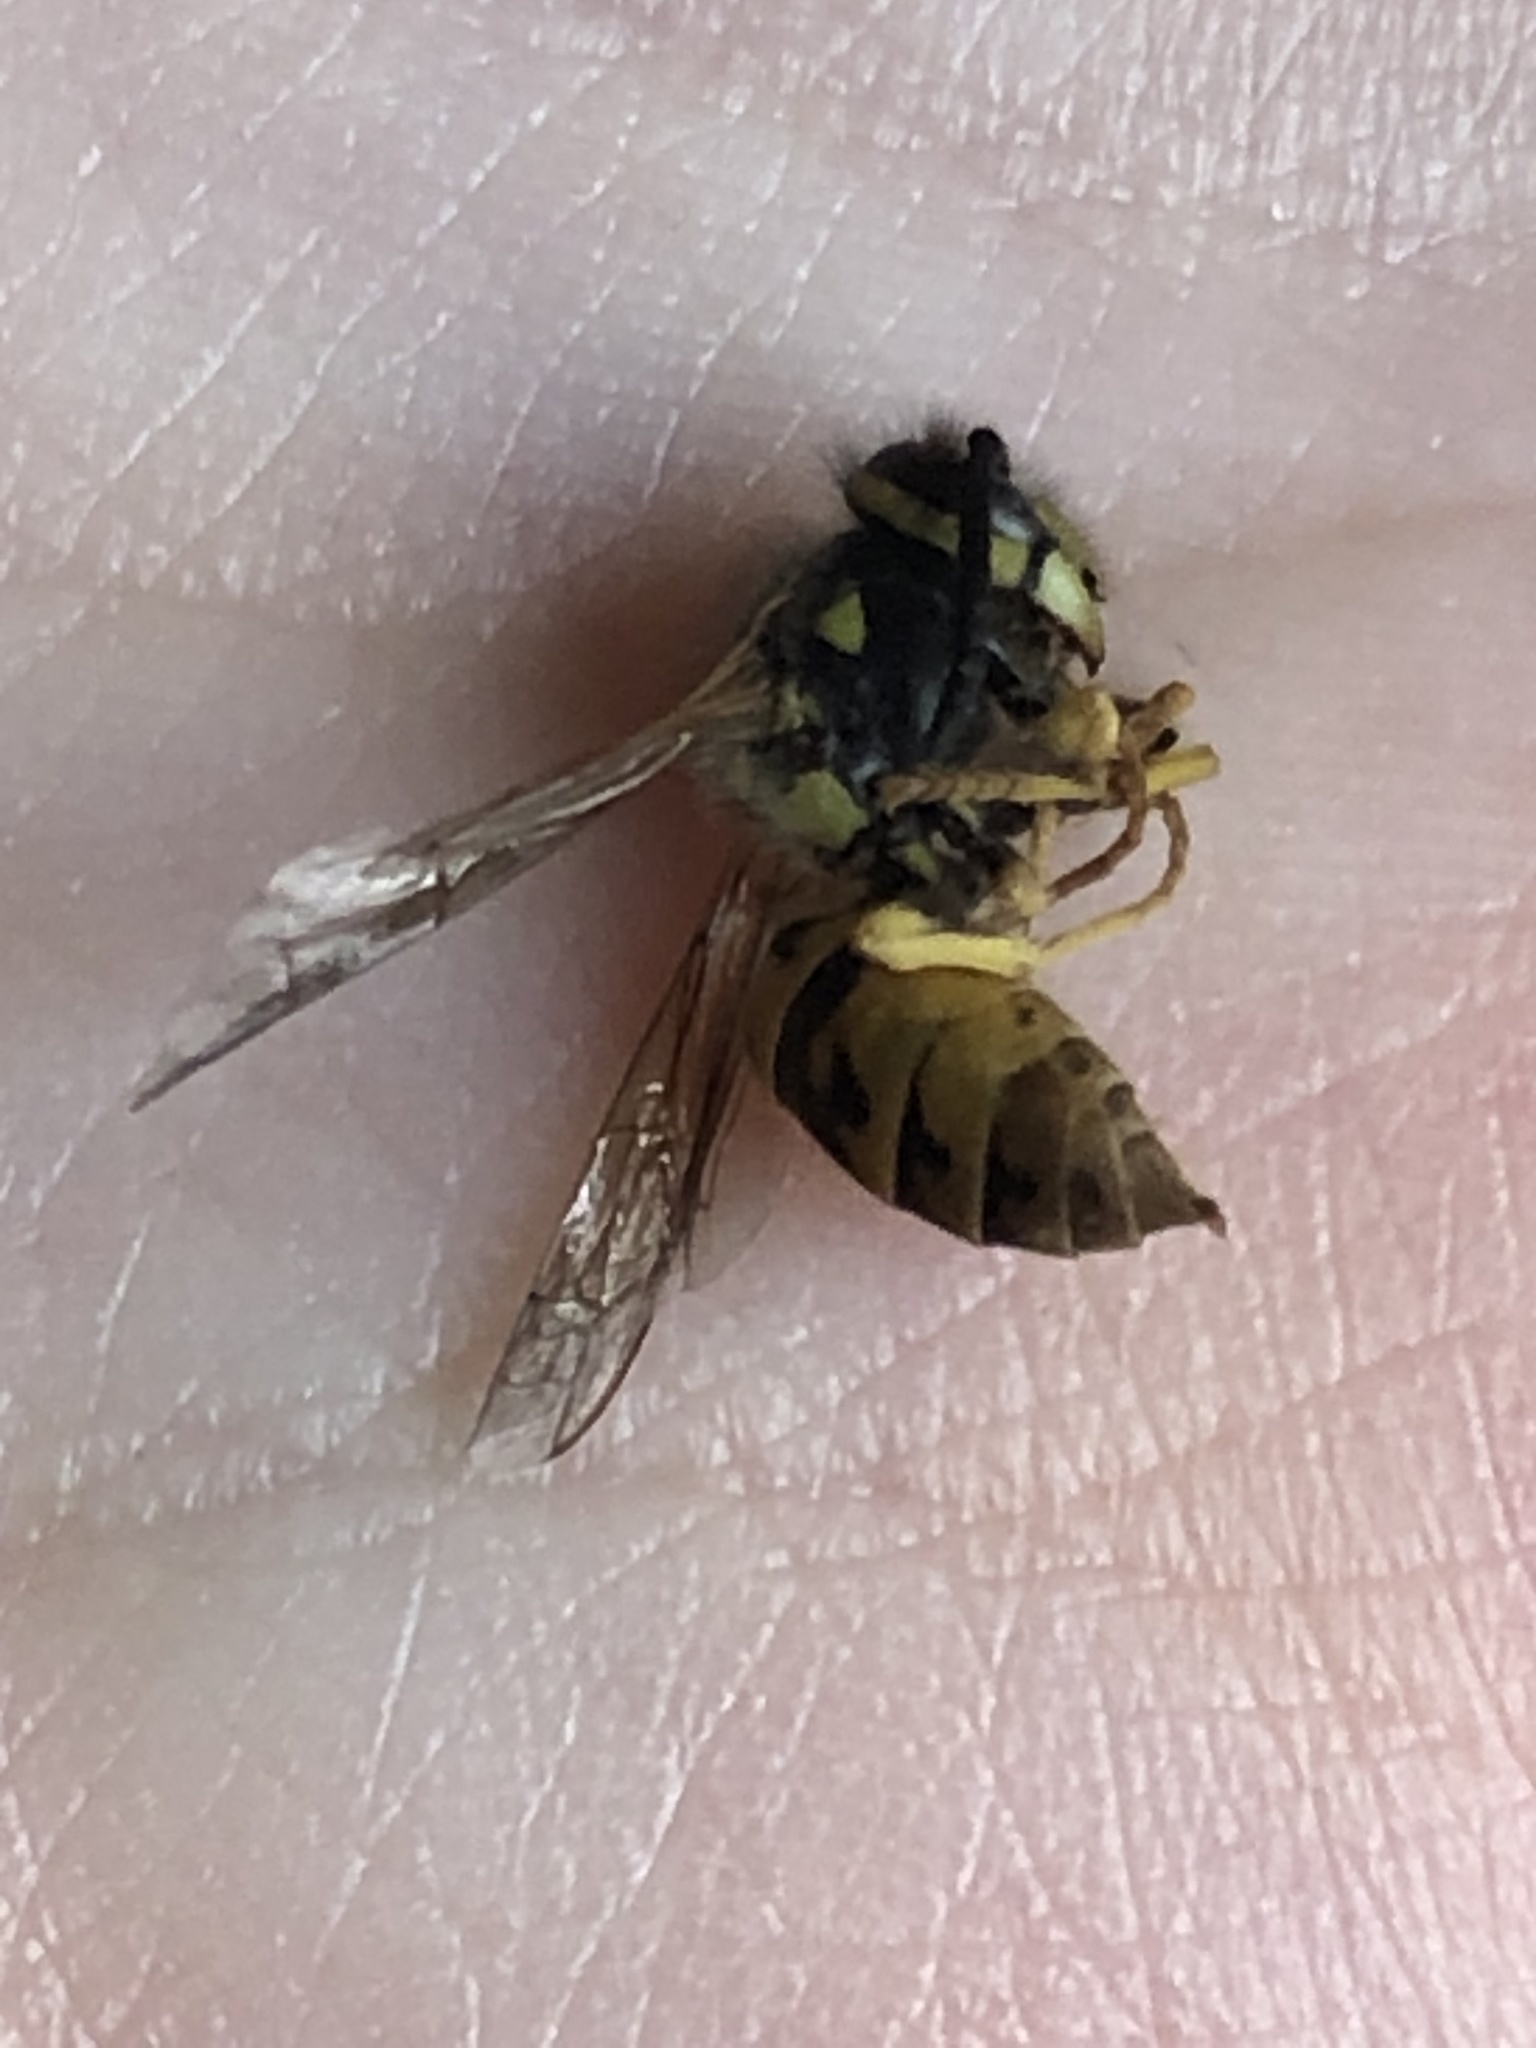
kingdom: Animalia
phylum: Arthropoda
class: Insecta
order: Hymenoptera
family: Vespidae
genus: Vespula
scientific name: Vespula germanica
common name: German wasp
